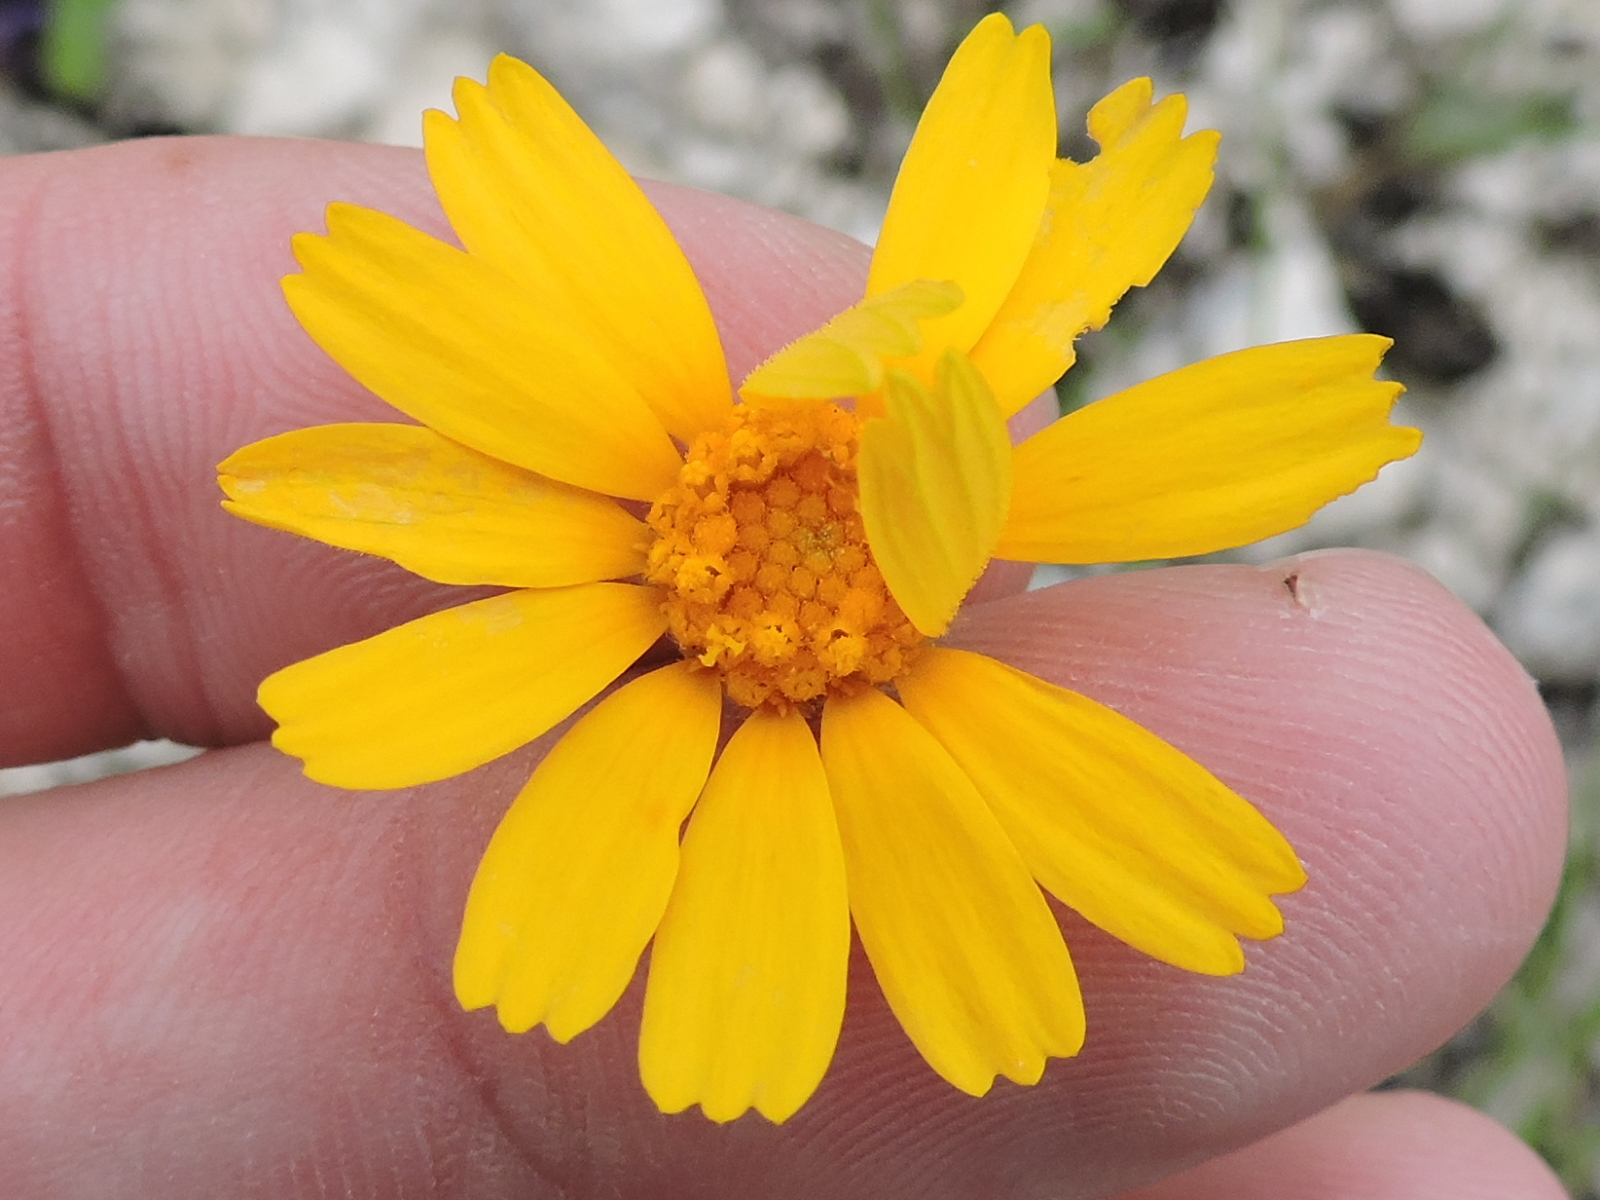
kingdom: Plantae
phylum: Tracheophyta
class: Magnoliopsida
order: Asterales
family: Asteraceae
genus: Tetraneuris
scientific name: Tetraneuris scaposa
